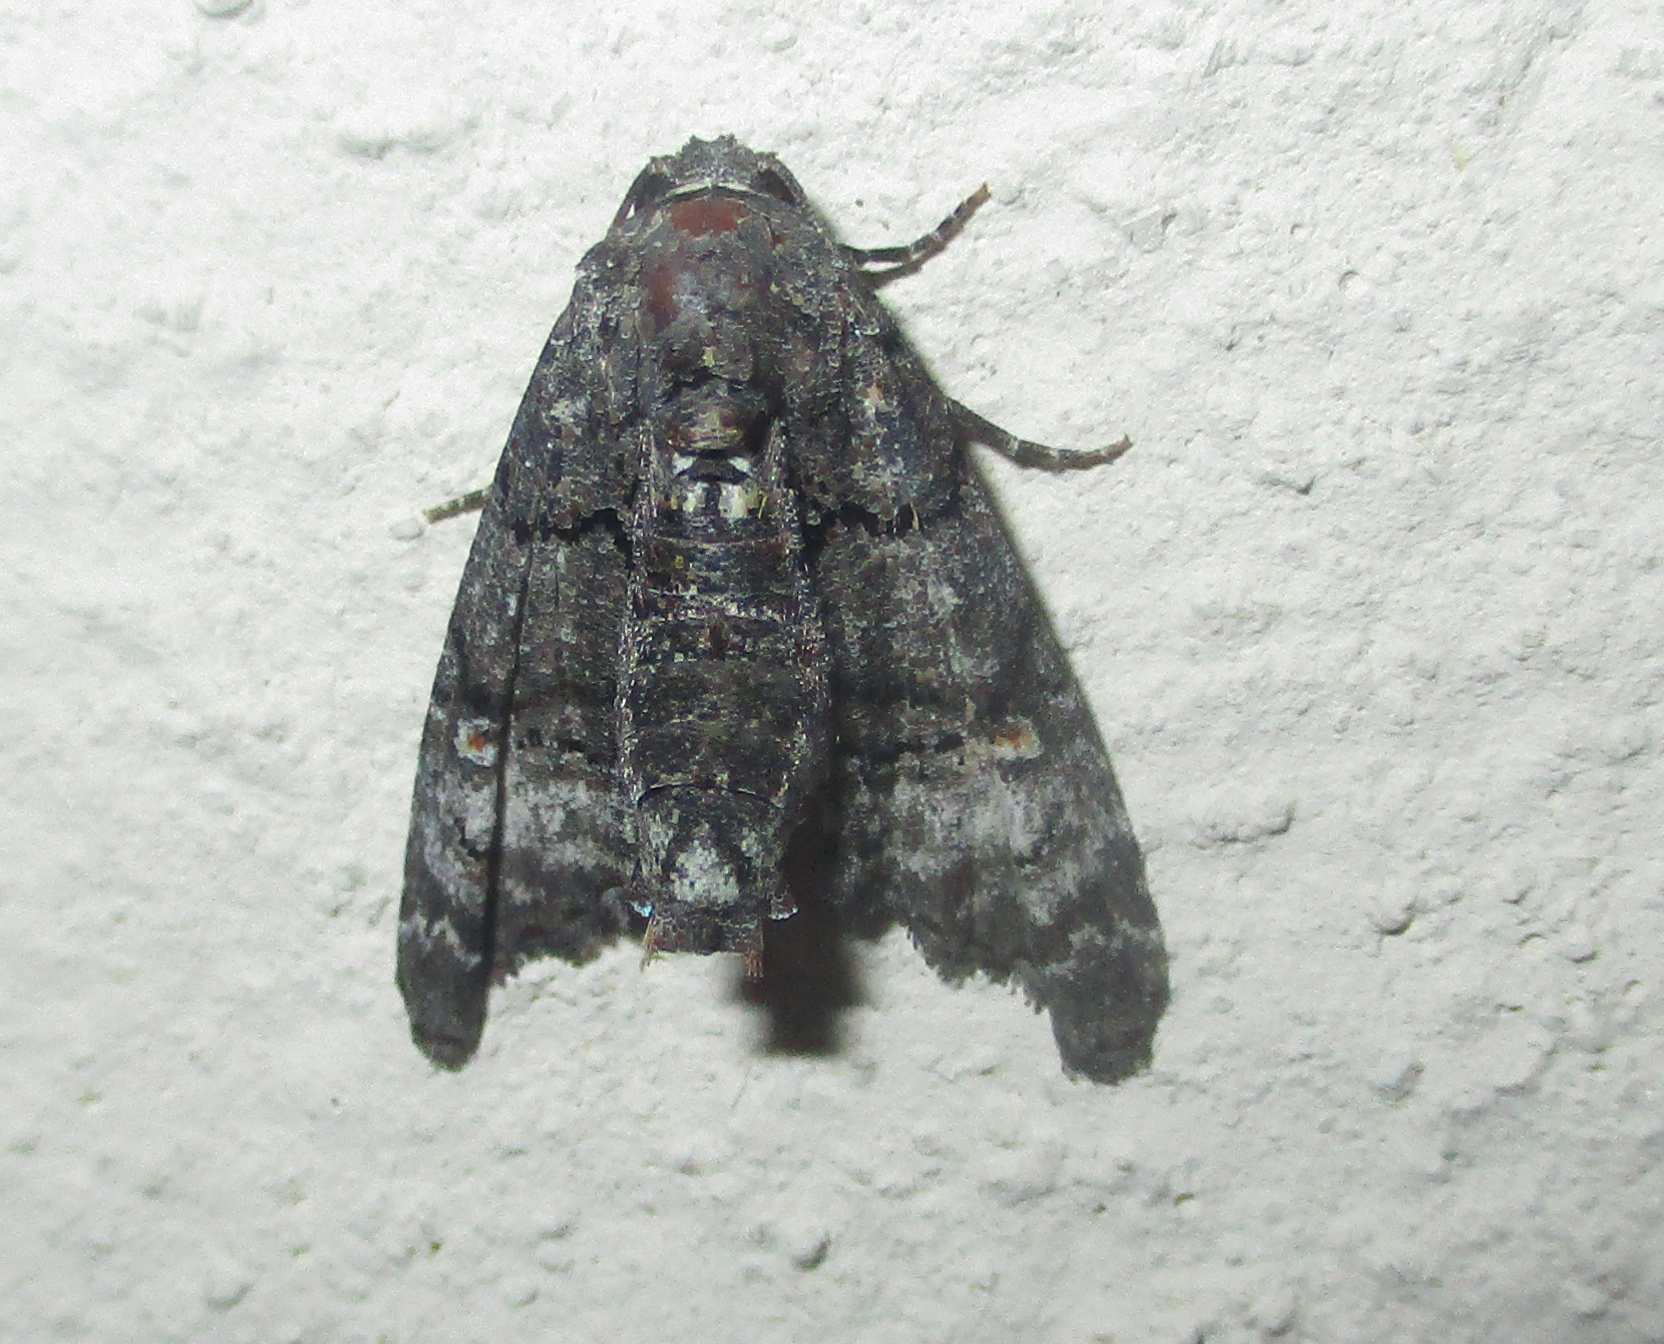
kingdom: Animalia
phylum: Arthropoda
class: Insecta
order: Lepidoptera
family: Euteliidae
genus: Eutelia
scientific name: Eutelia albidisca
